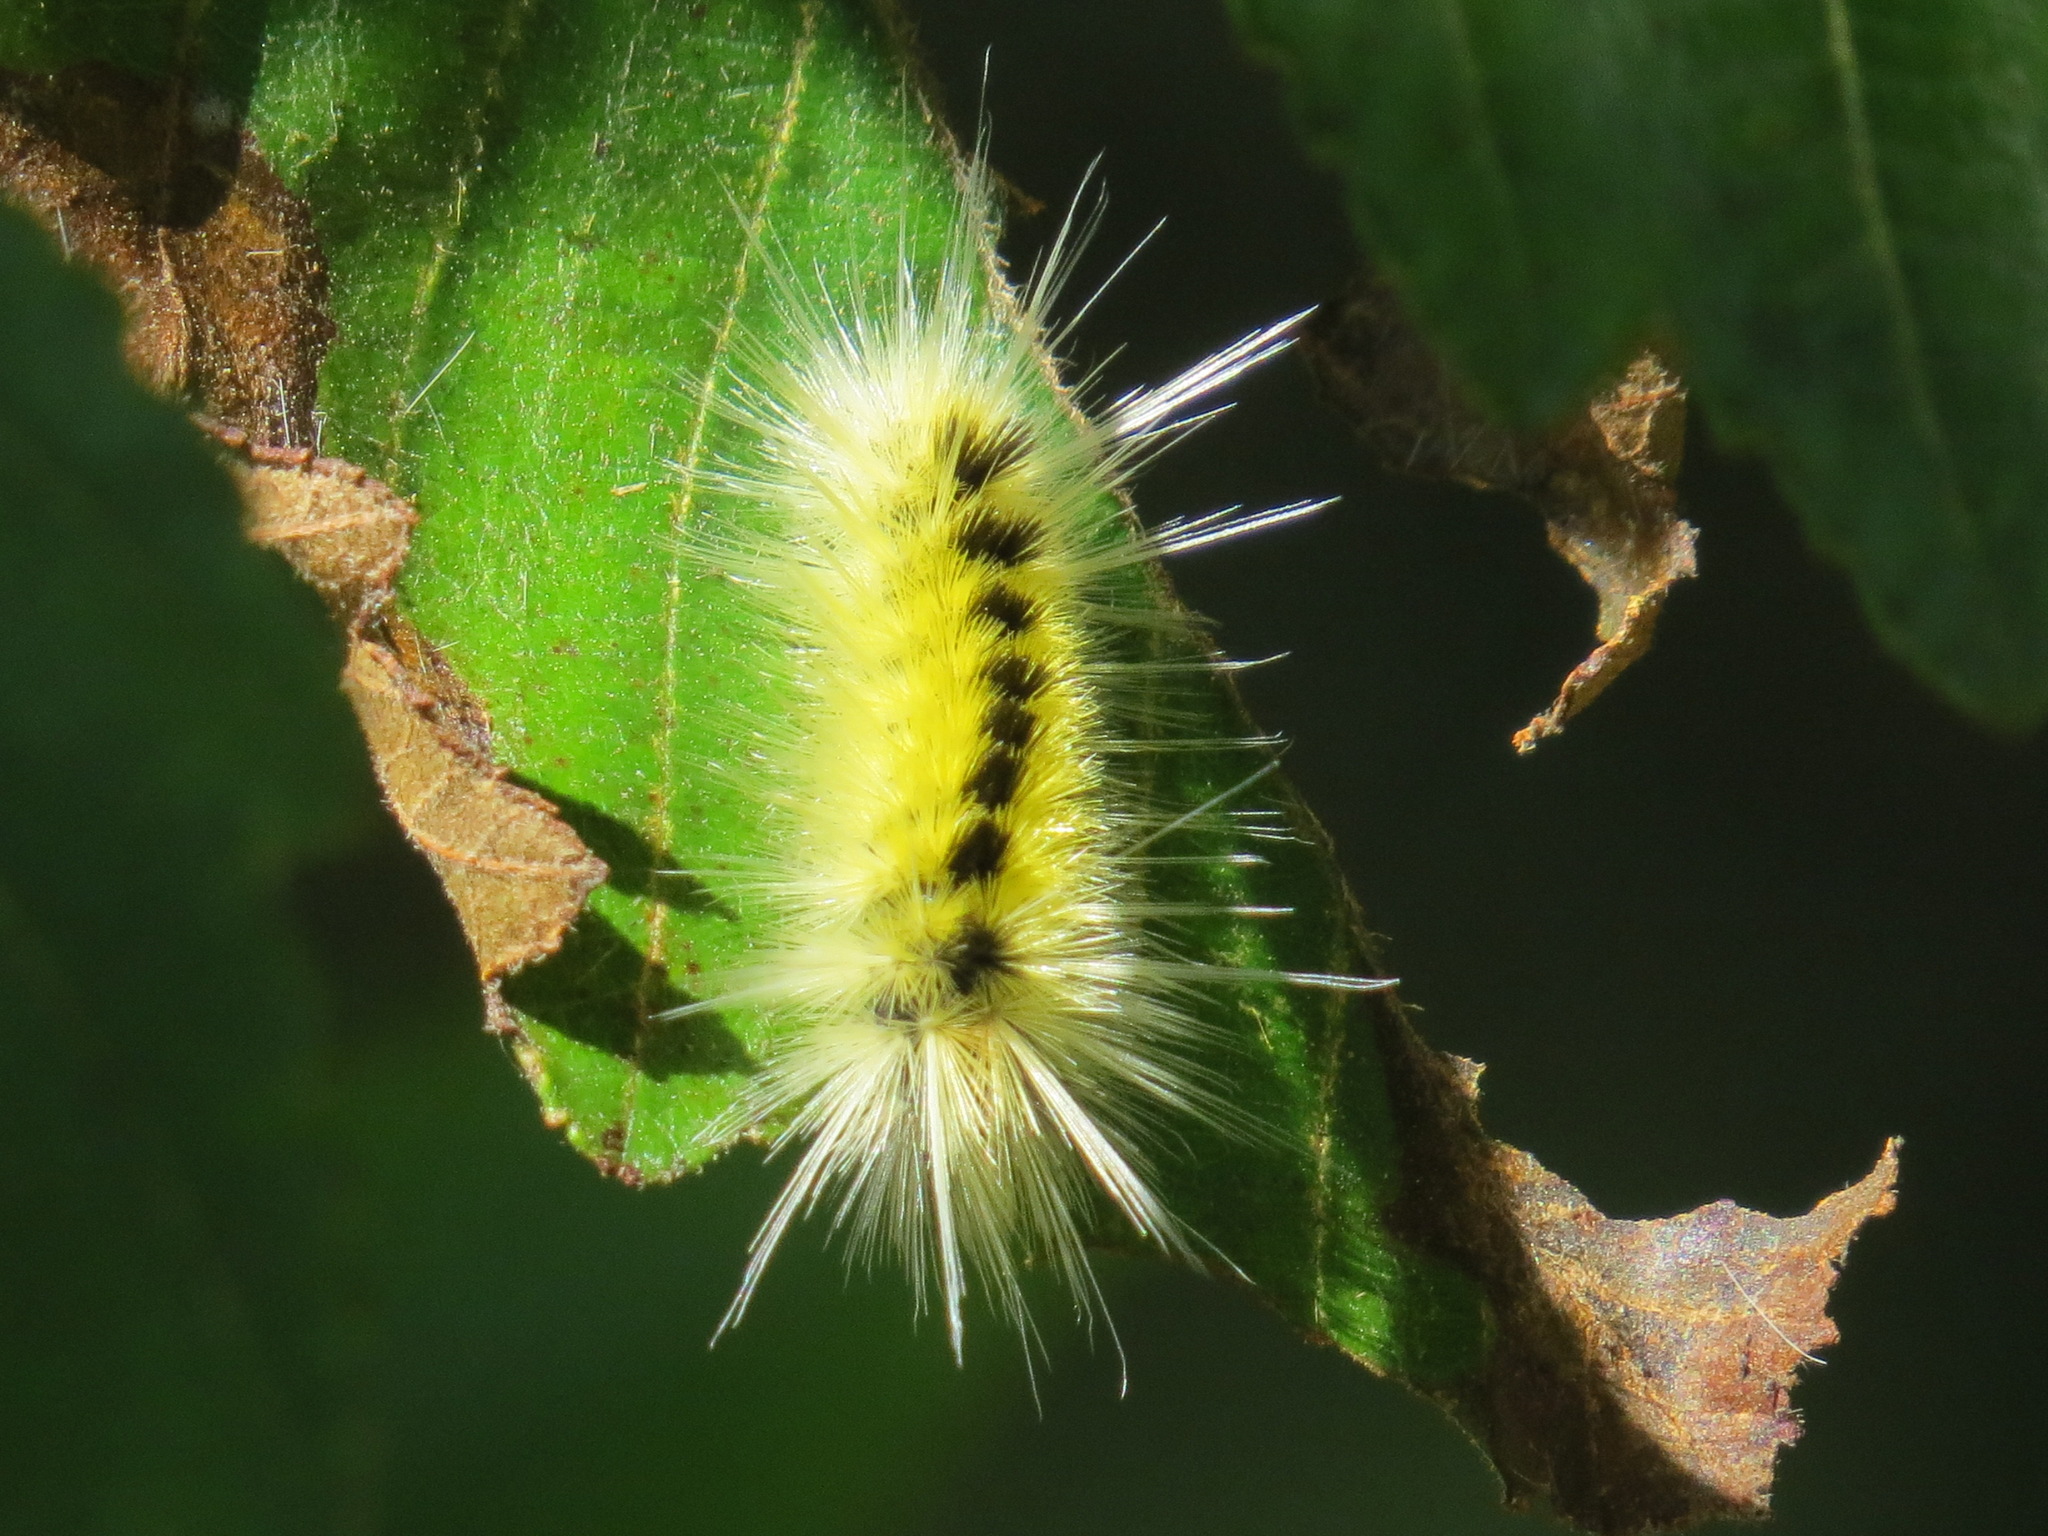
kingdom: Animalia
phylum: Arthropoda
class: Insecta
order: Lepidoptera
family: Erebidae
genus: Lophocampa
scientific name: Lophocampa maculata
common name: Spotted tussock moth
